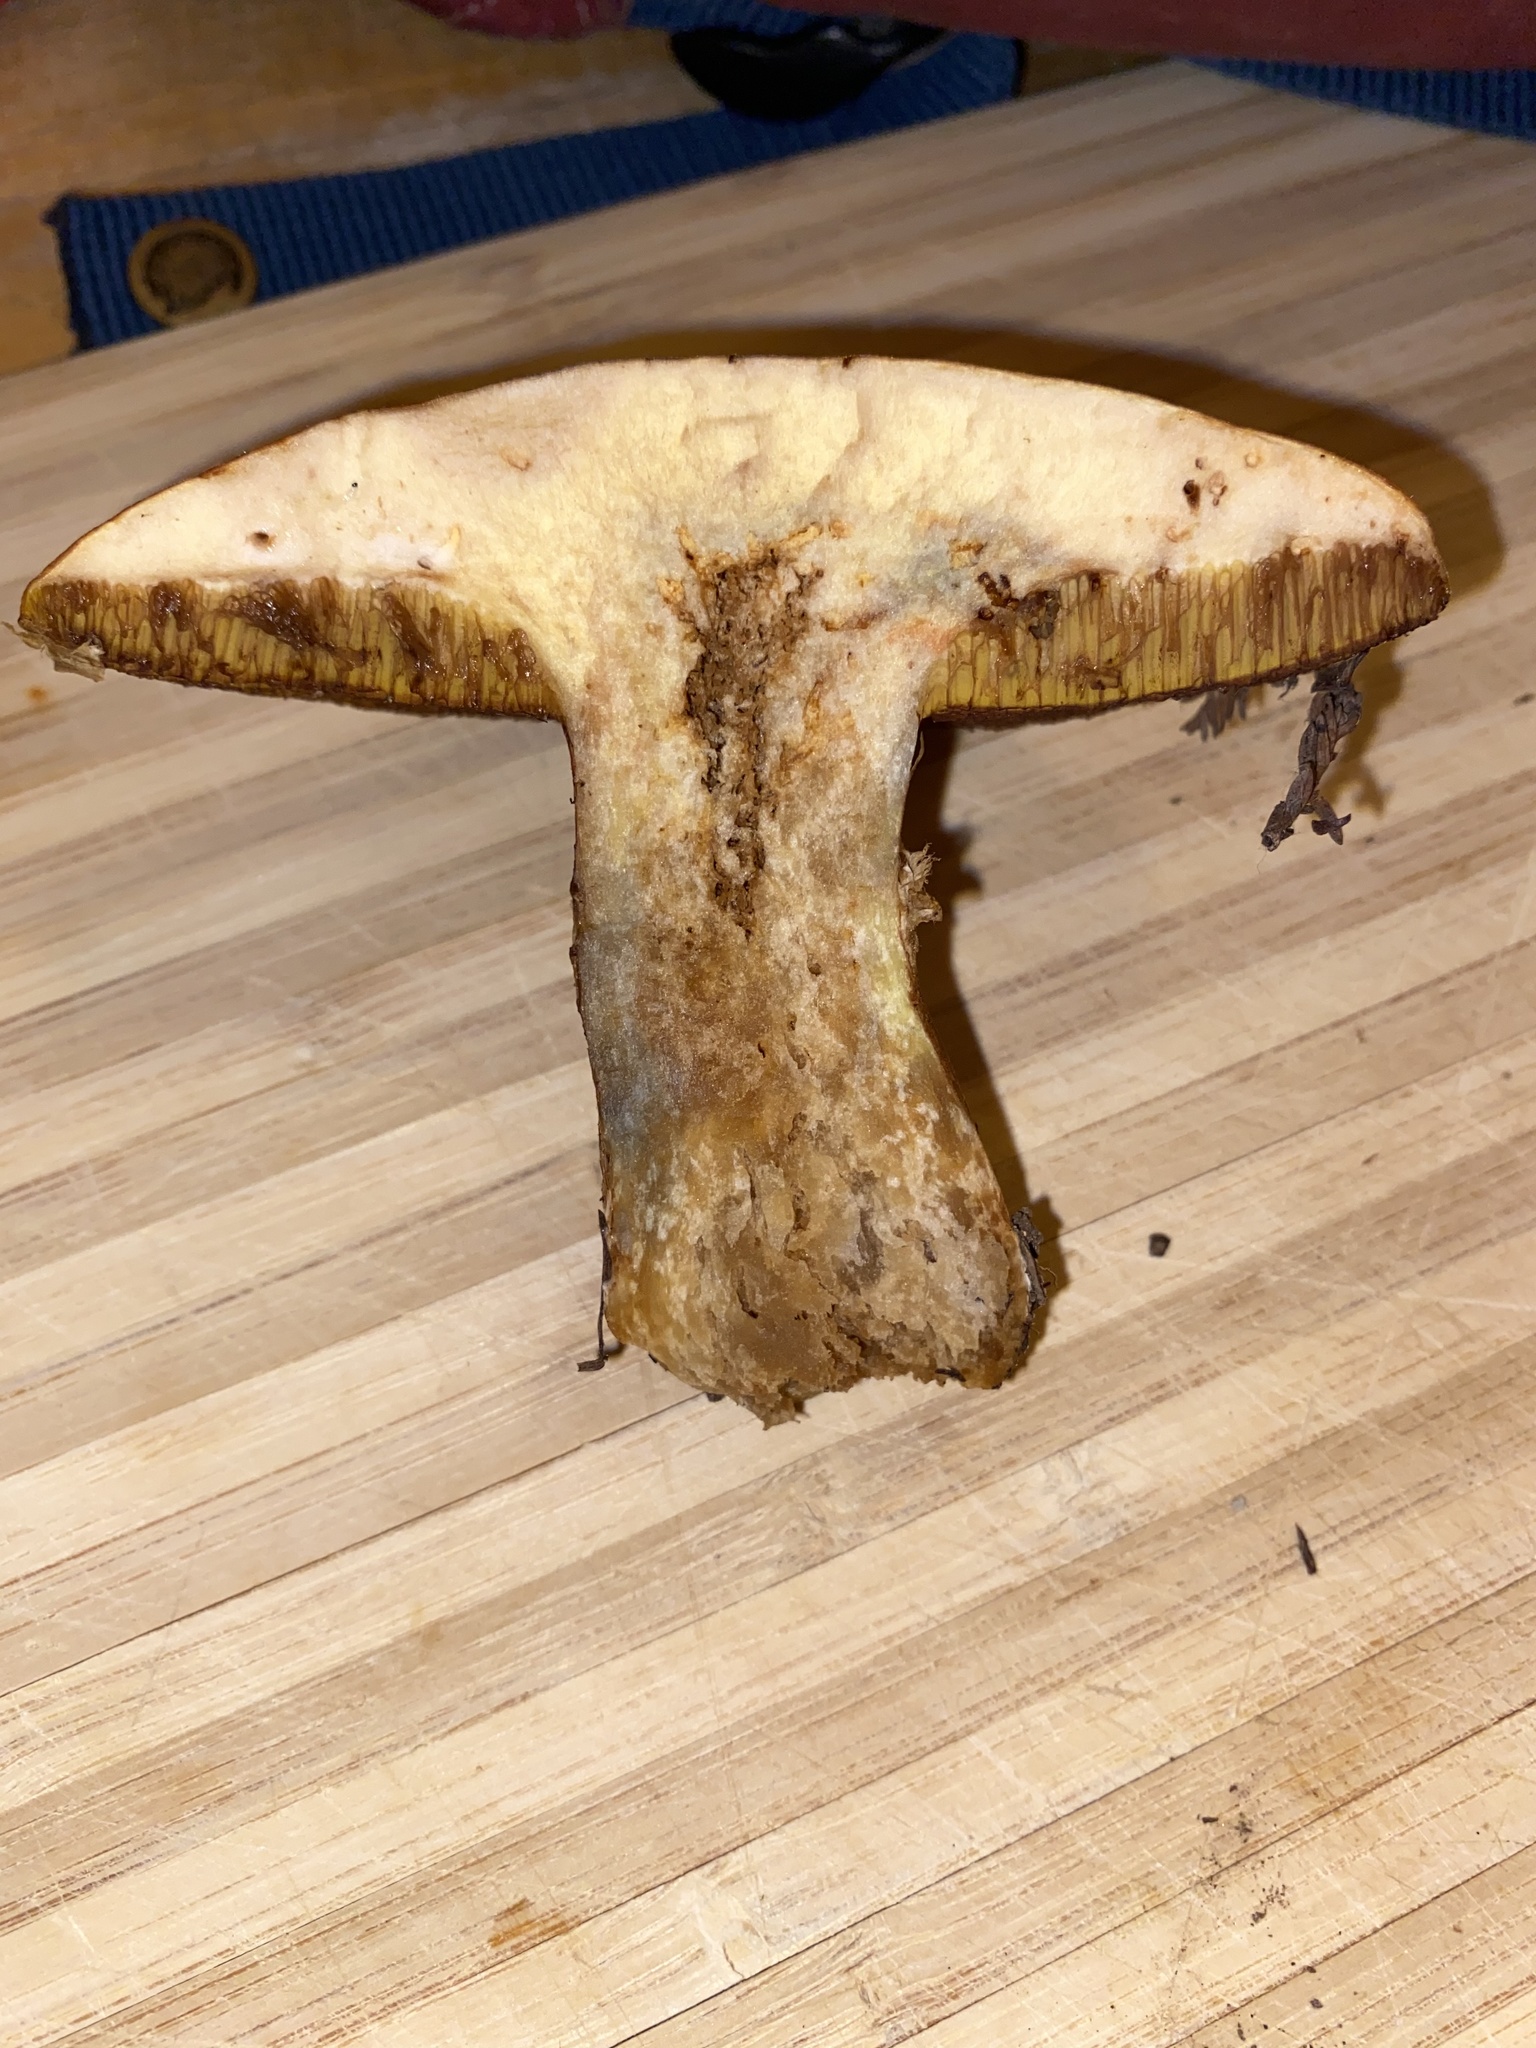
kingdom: Fungi
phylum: Basidiomycota
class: Agaricomycetes
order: Boletales
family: Suillaceae
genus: Suillus
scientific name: Suillus caerulescens
